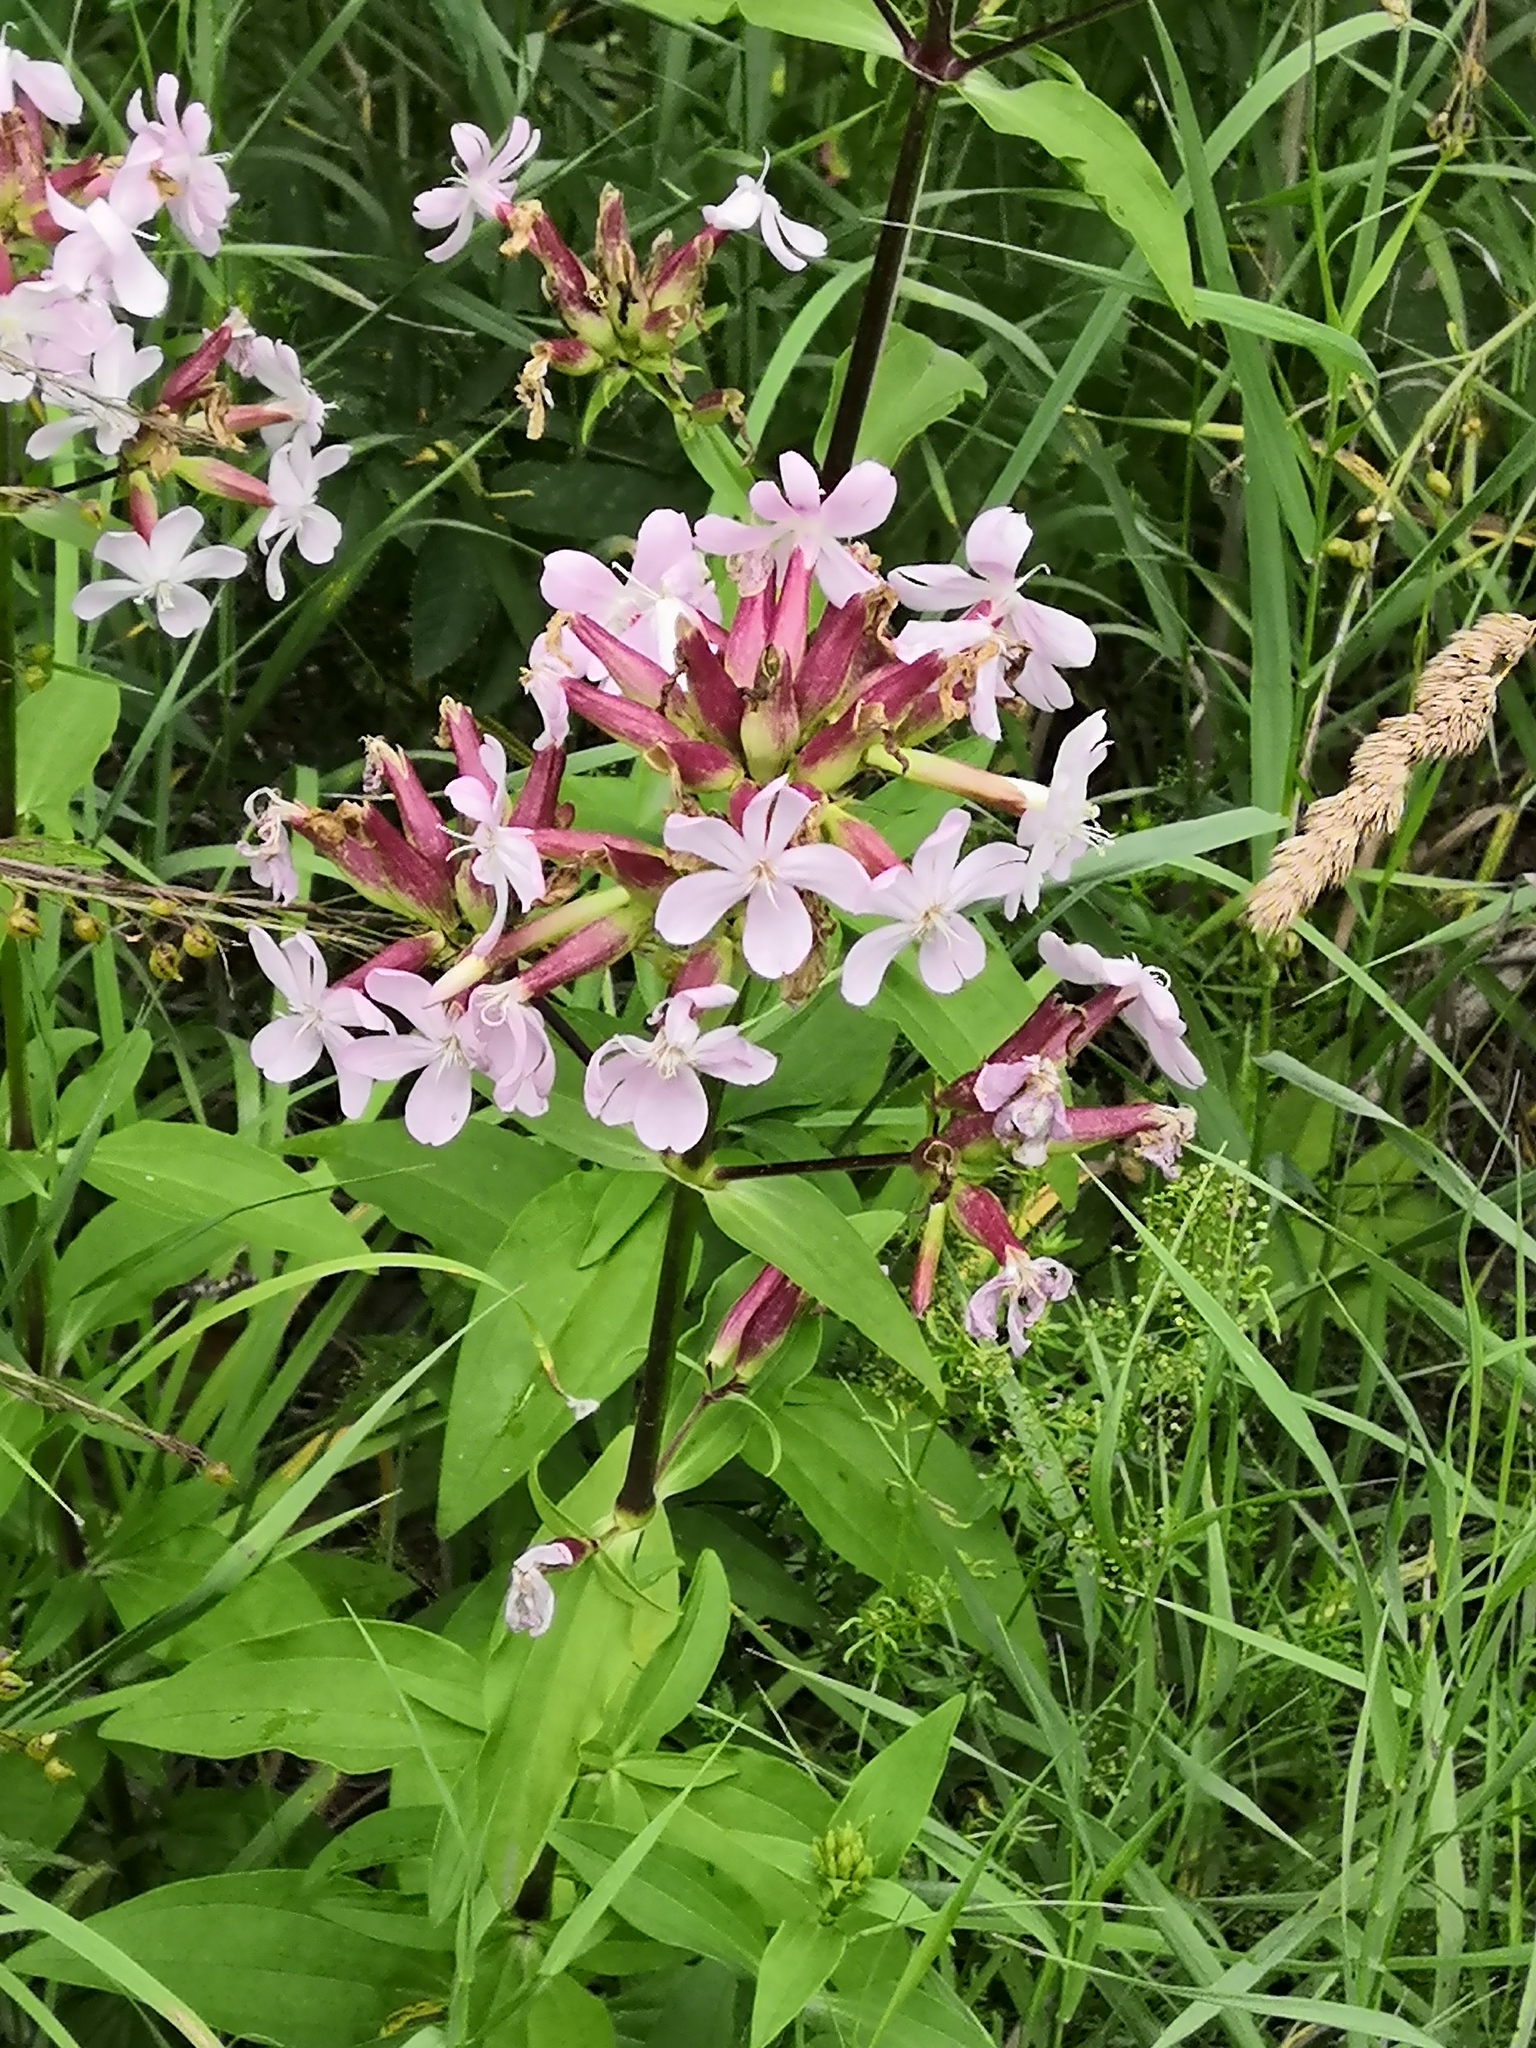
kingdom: Plantae
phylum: Tracheophyta
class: Magnoliopsida
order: Caryophyllales
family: Caryophyllaceae
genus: Saponaria
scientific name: Saponaria officinalis
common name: Soapwort
